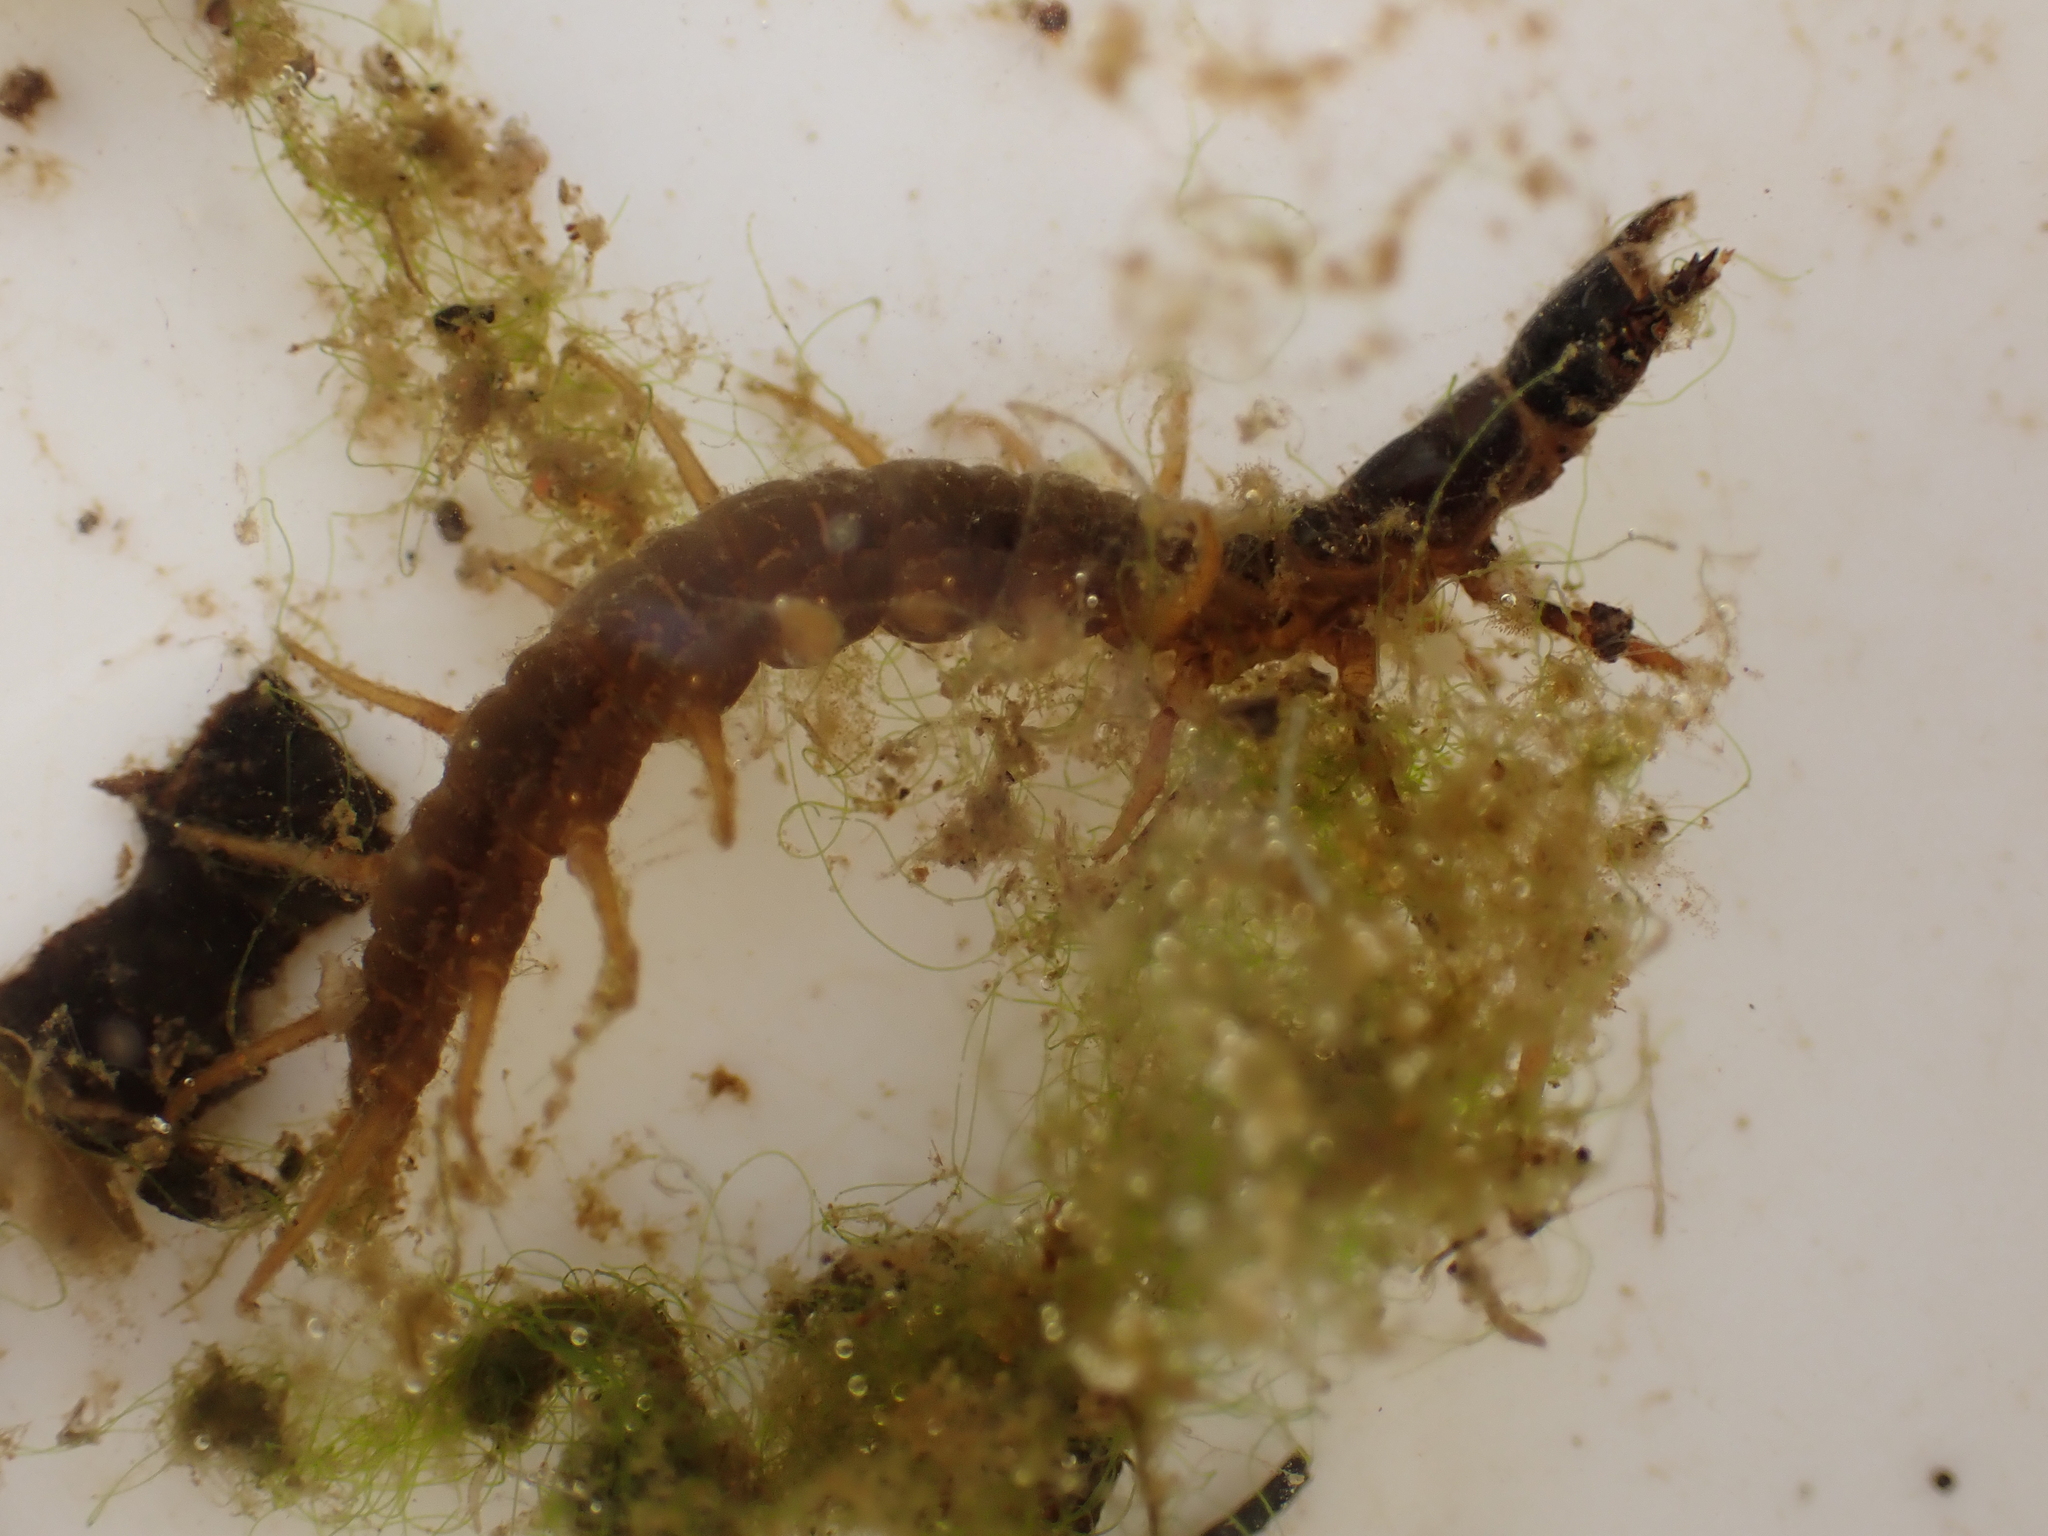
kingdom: Animalia
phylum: Arthropoda
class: Insecta
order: Megaloptera
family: Corydalidae
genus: Archichauliodes
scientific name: Archichauliodes diversus
